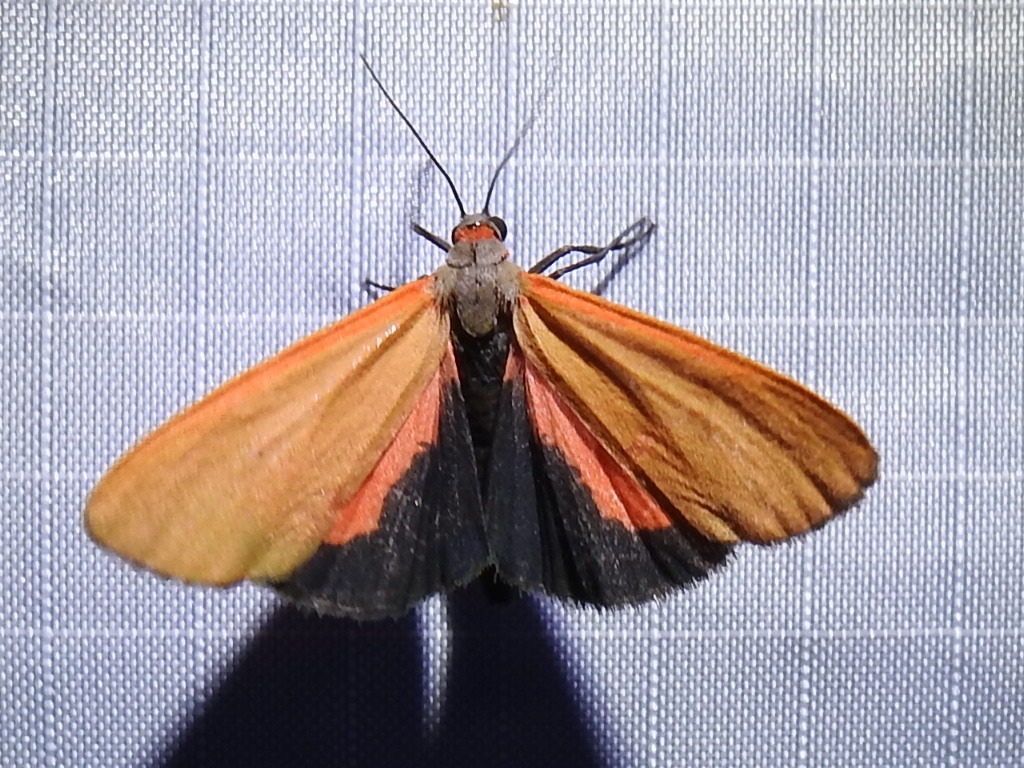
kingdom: Animalia
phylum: Arthropoda
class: Insecta
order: Lepidoptera
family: Erebidae
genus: Virbia
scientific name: Virbia ostenta
